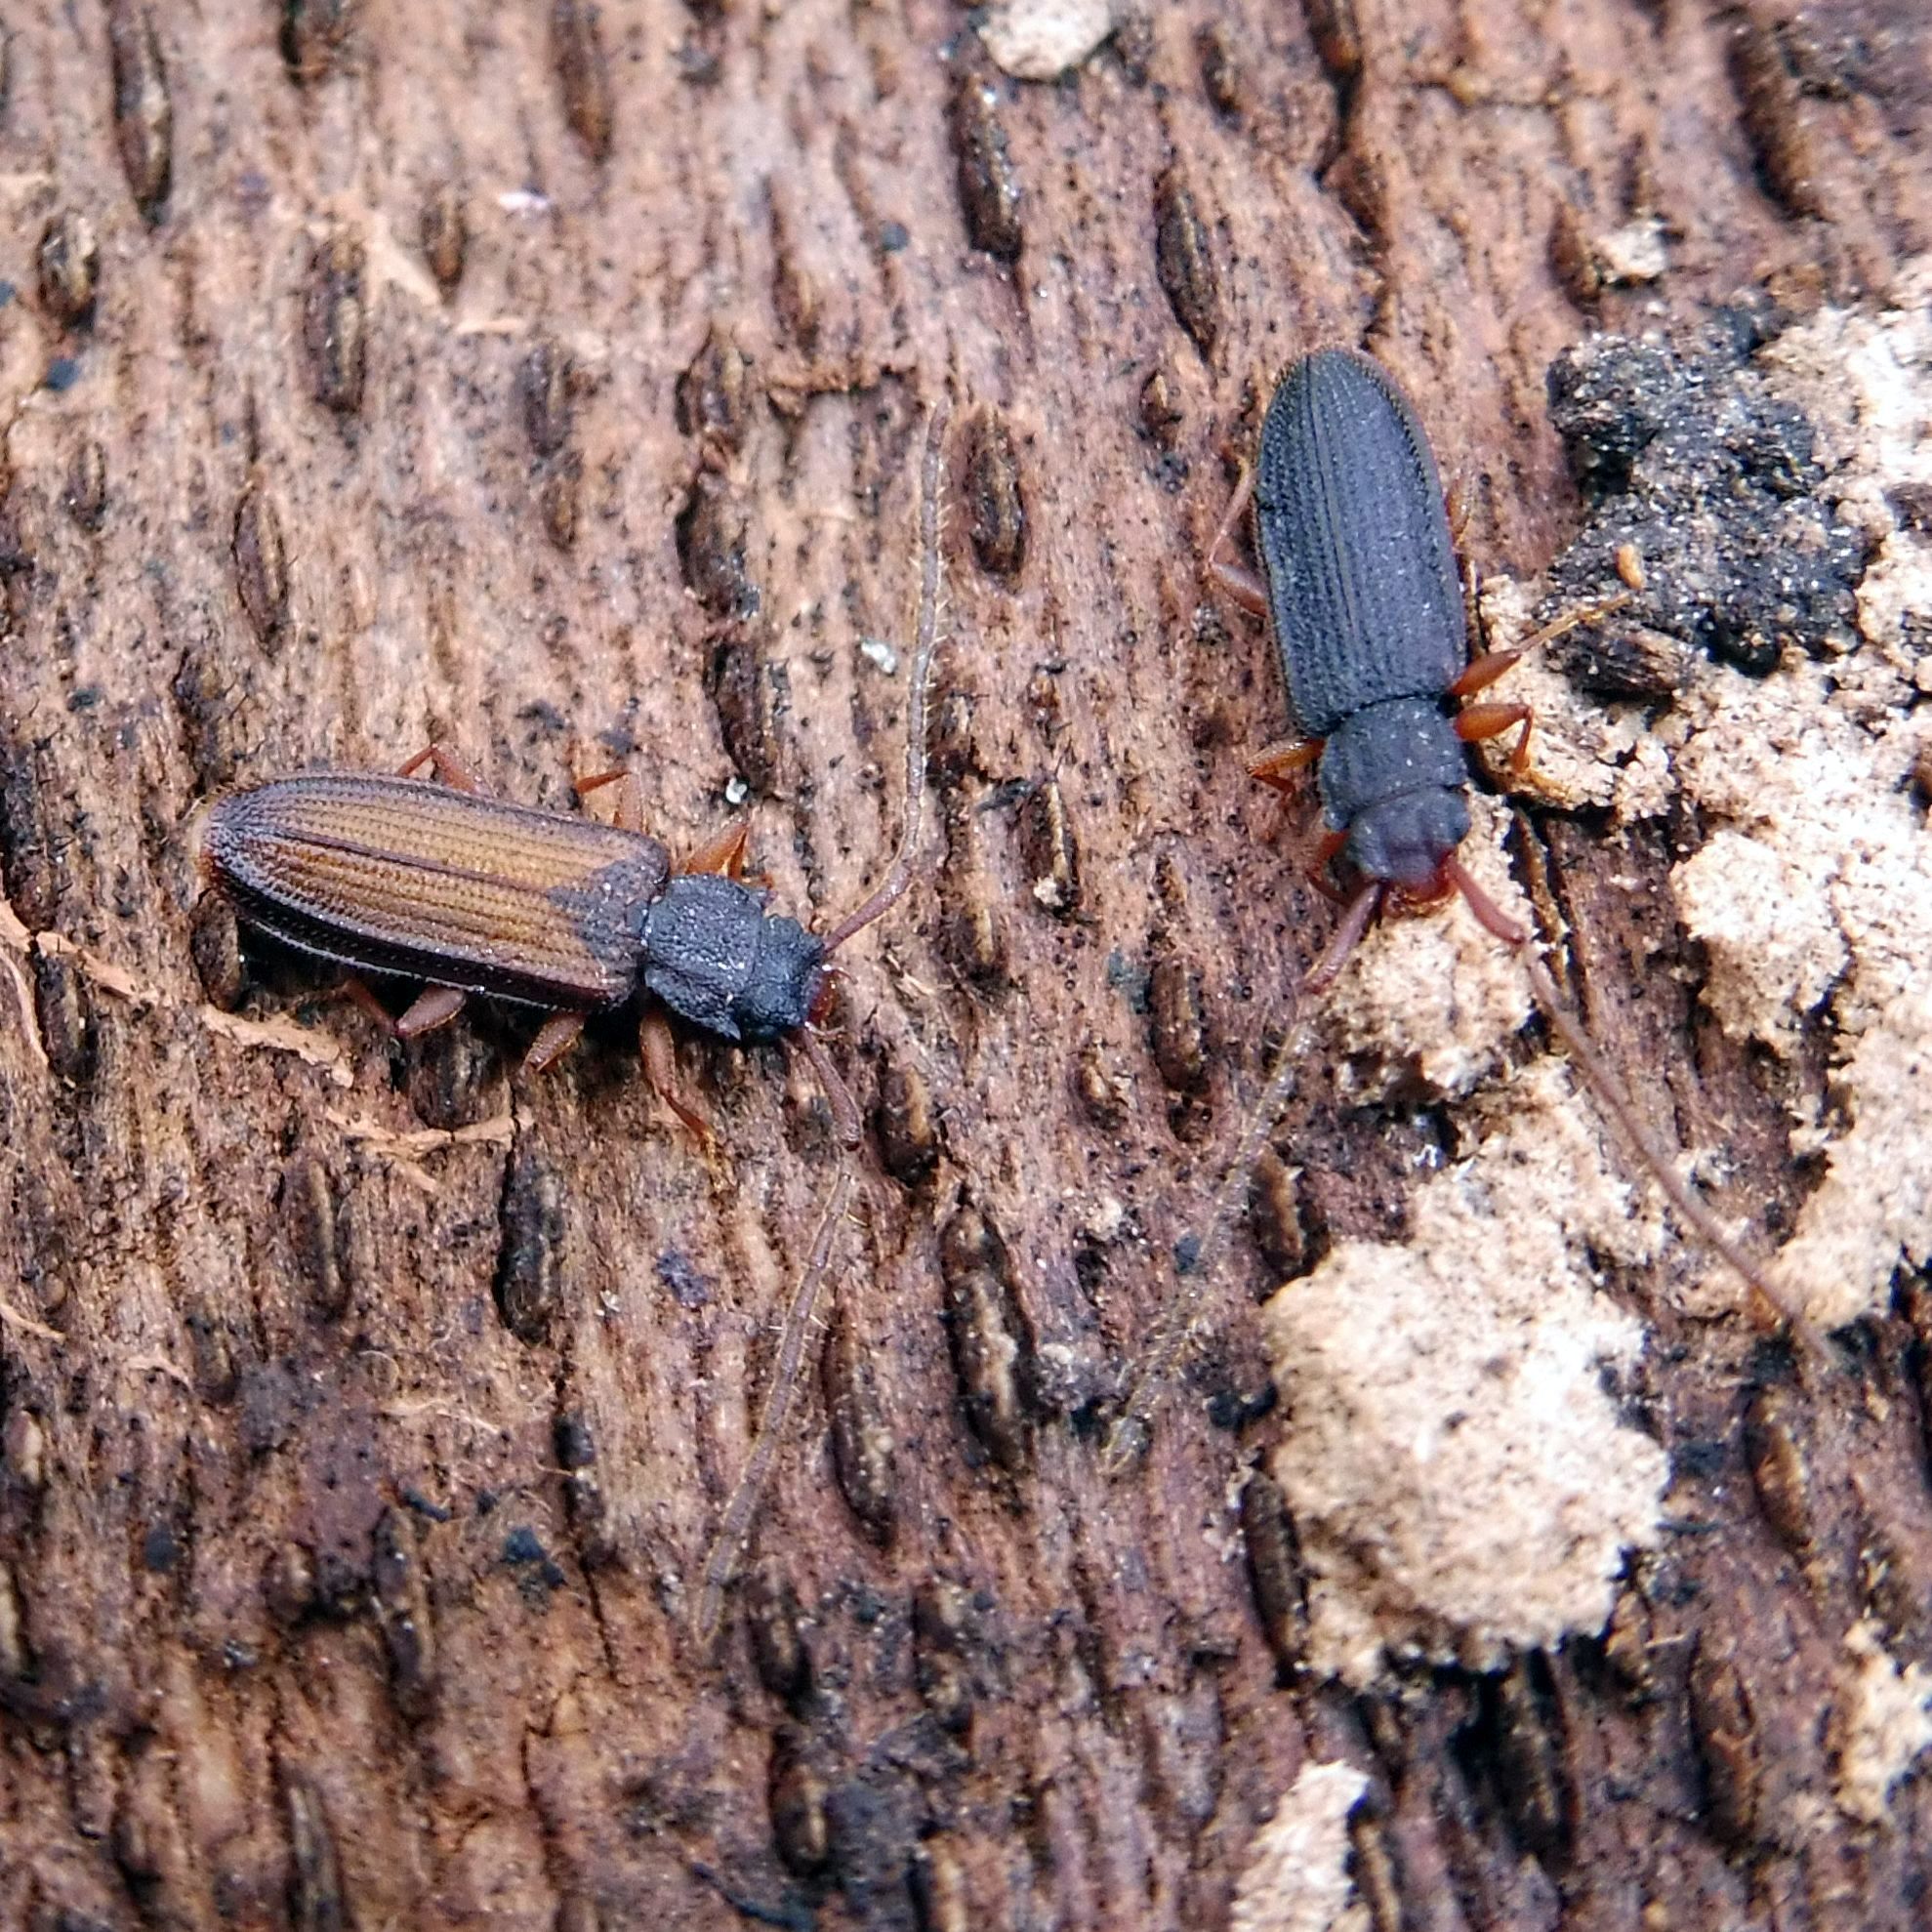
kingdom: Animalia
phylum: Arthropoda
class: Insecta
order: Coleoptera
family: Silvanidae
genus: Uleiota
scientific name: Uleiota planatus
